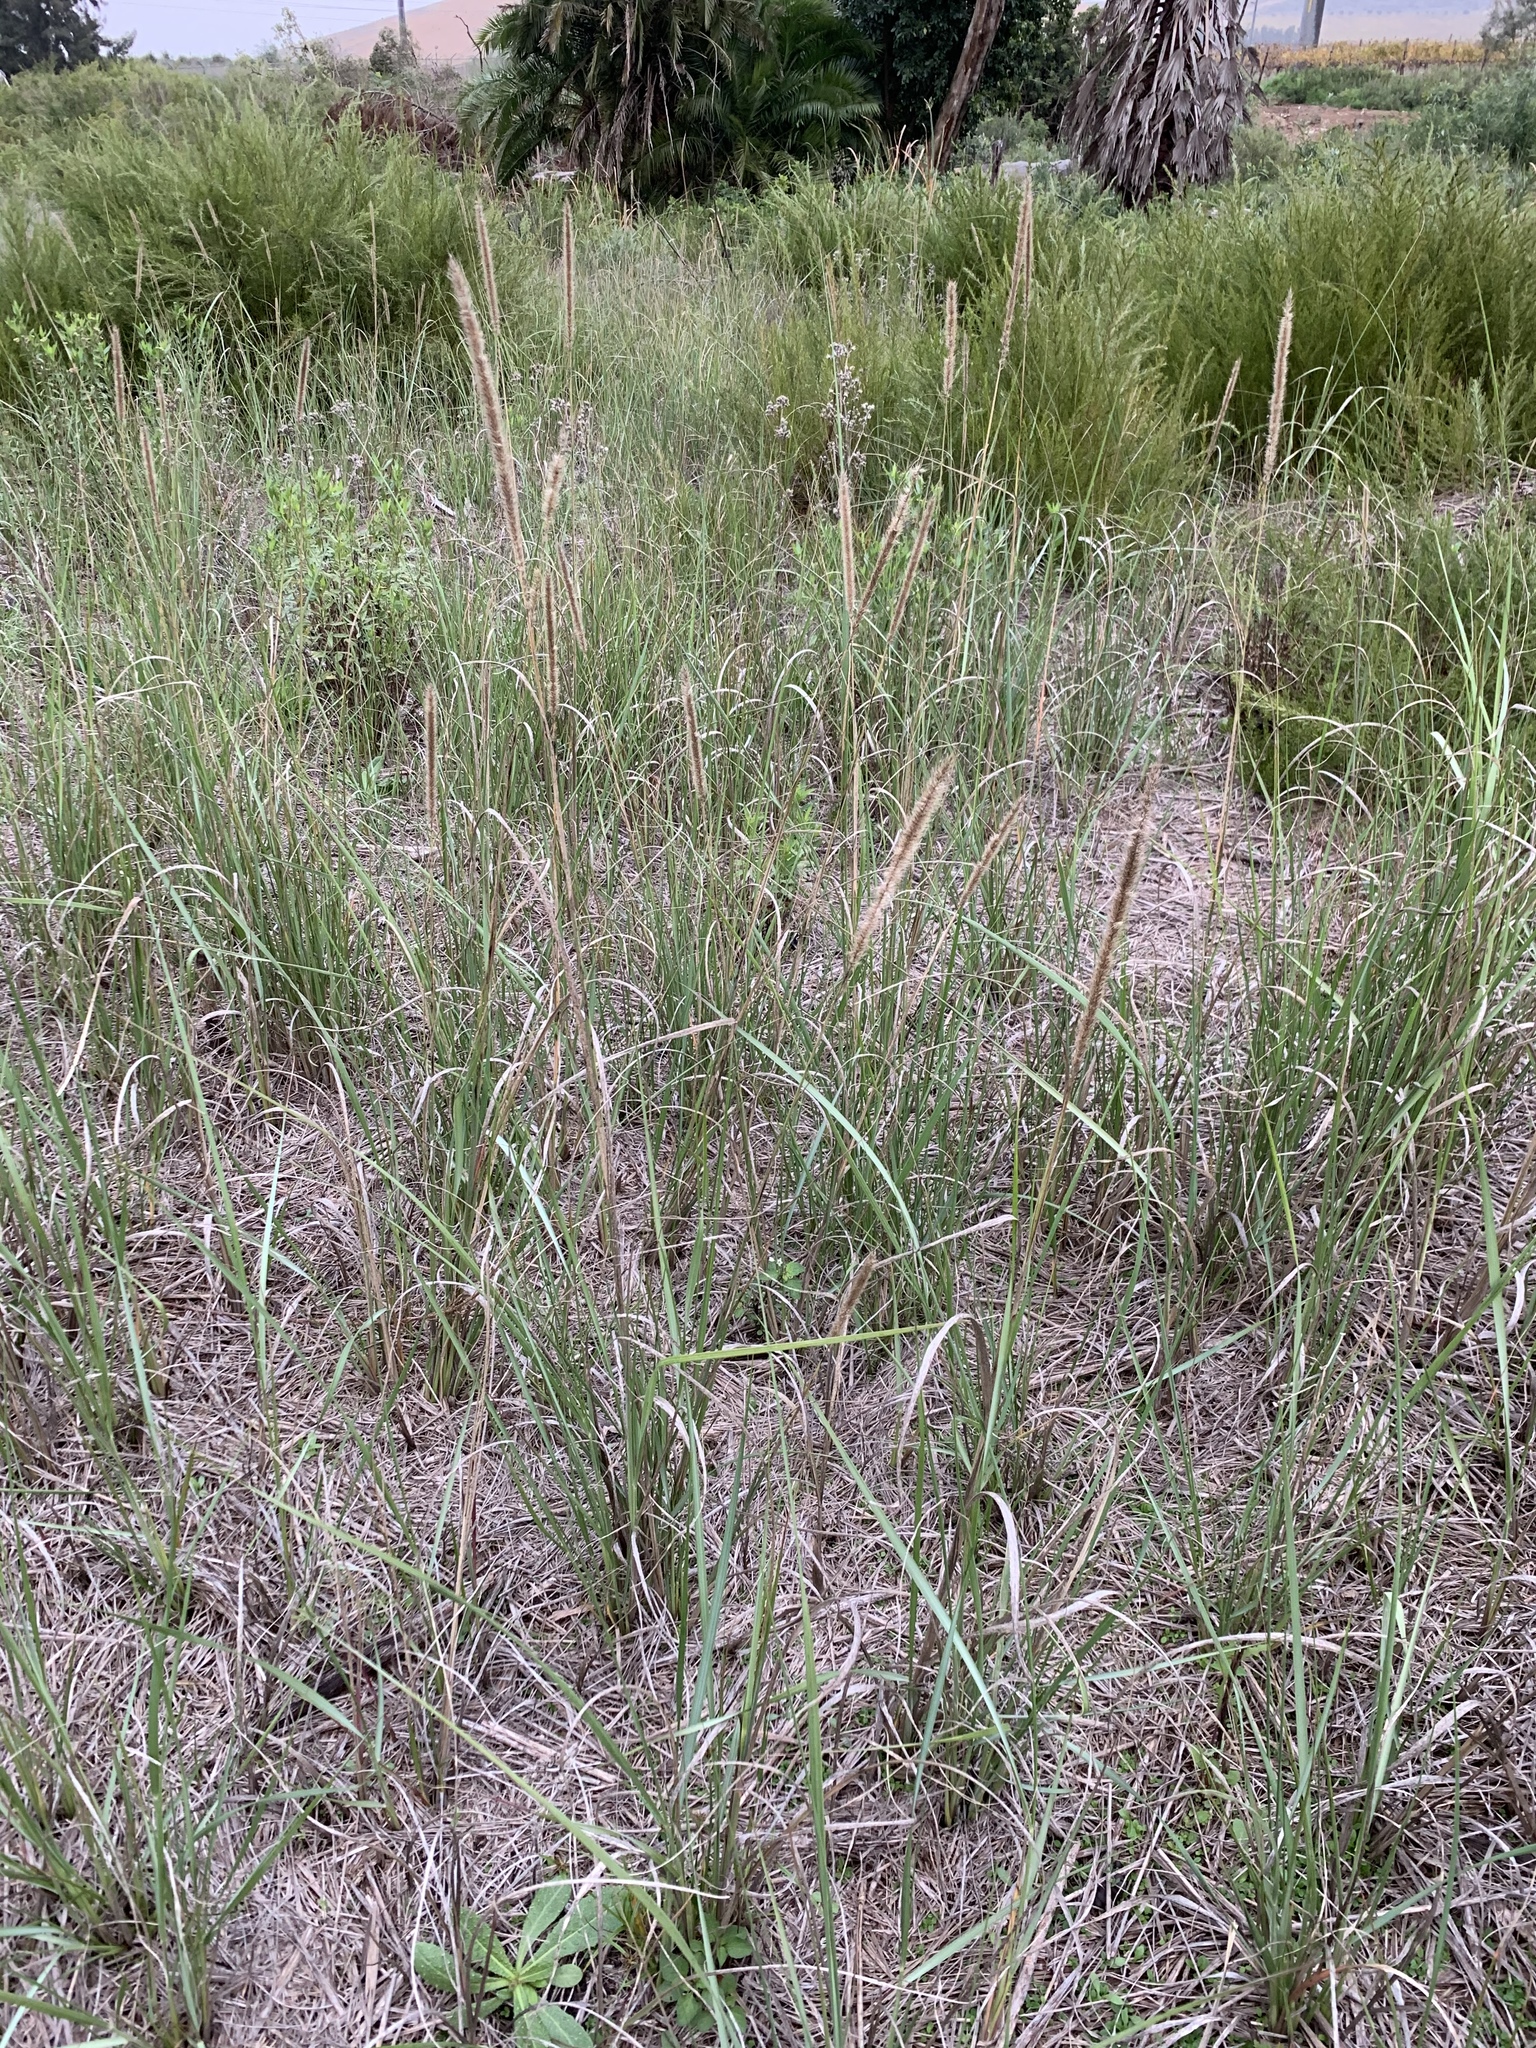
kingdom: Plantae
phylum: Tracheophyta
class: Liliopsida
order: Poales
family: Poaceae
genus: Cenchrus
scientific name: Cenchrus caudatus
